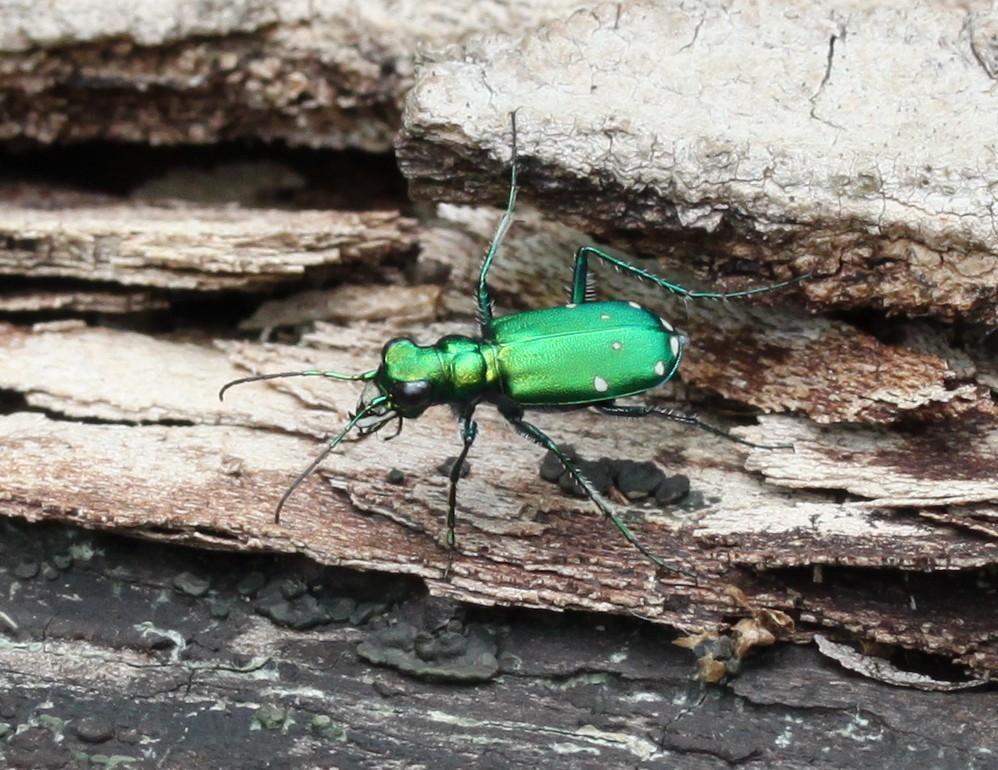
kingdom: Animalia
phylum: Arthropoda
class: Insecta
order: Coleoptera
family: Carabidae
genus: Cicindela
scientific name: Cicindela sexguttata
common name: Six-spotted tiger beetle
